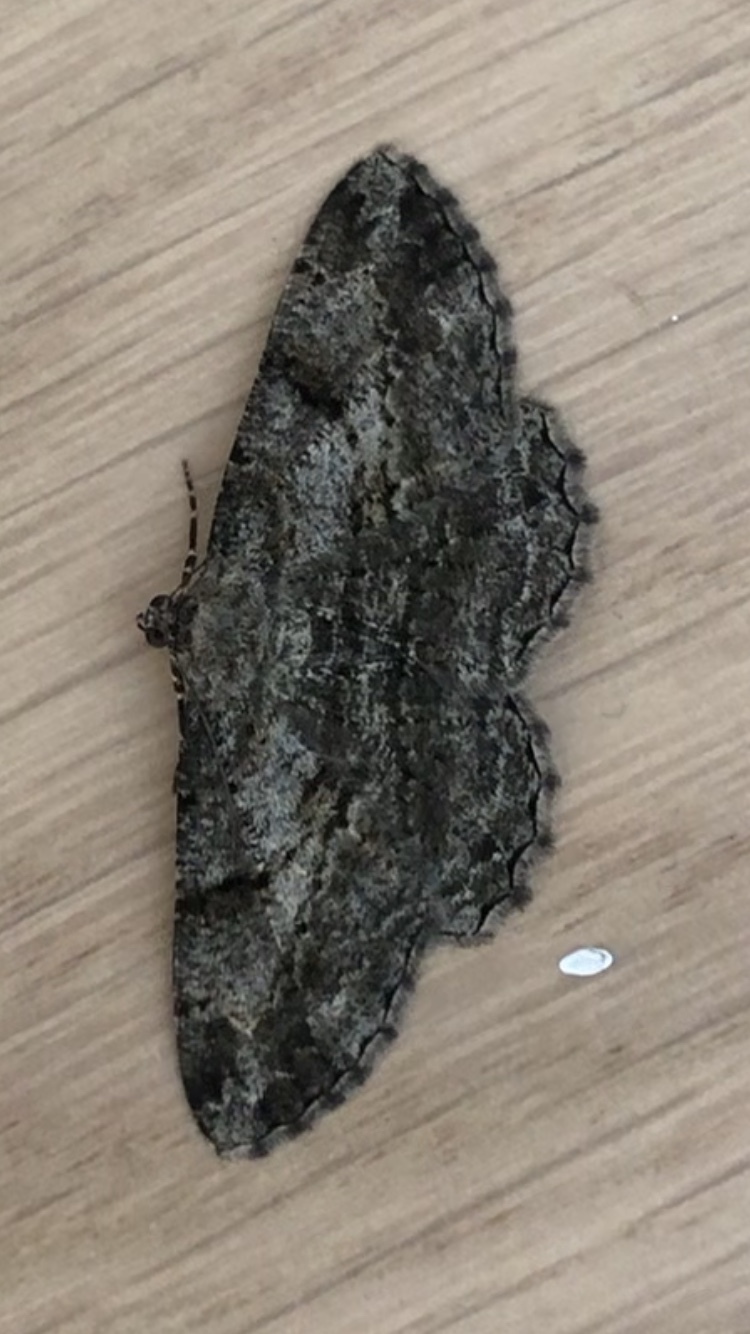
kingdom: Animalia
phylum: Arthropoda
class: Insecta
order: Lepidoptera
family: Geometridae
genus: Peribatodes
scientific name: Peribatodes rhomboidaria
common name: Willow beauty
